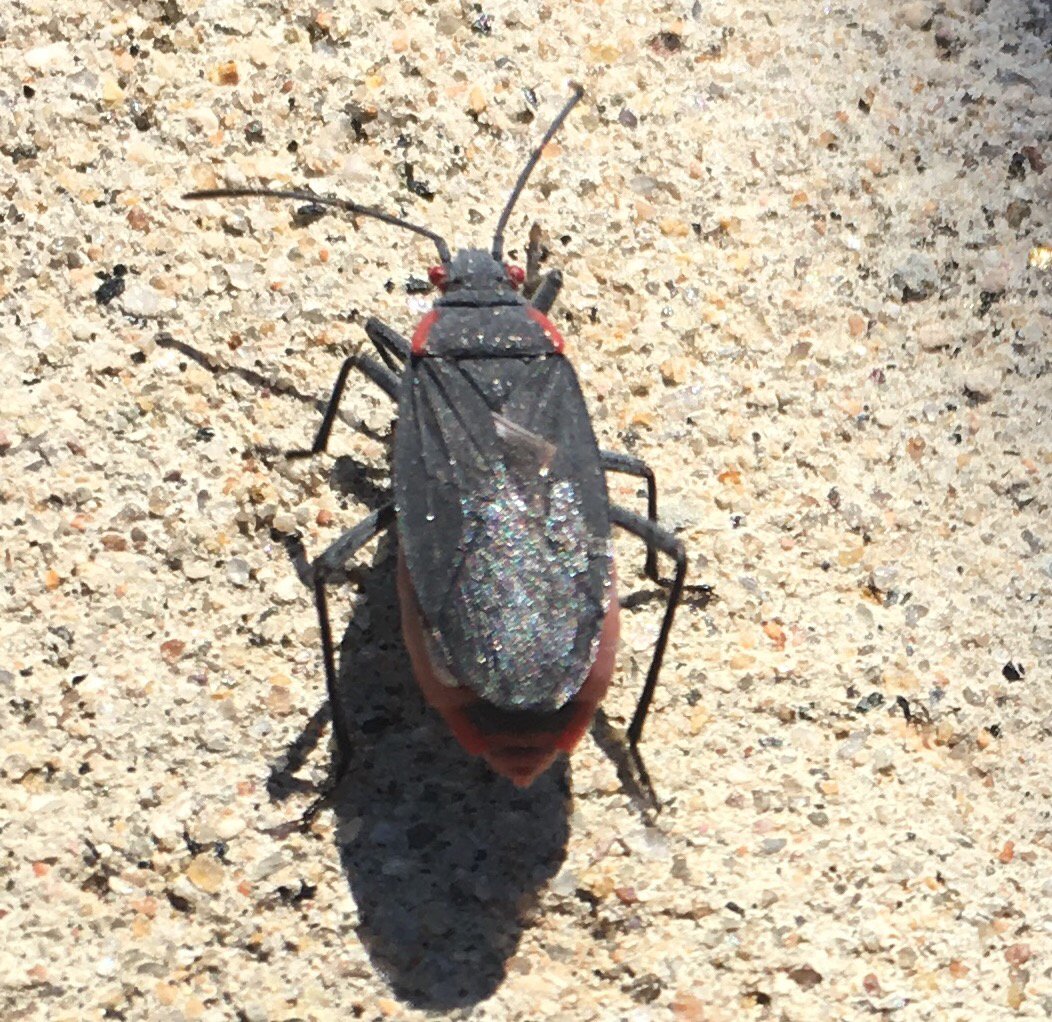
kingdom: Animalia
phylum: Arthropoda
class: Insecta
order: Hemiptera
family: Rhopalidae
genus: Jadera
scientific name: Jadera haematoloma
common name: Red-shouldered bug
